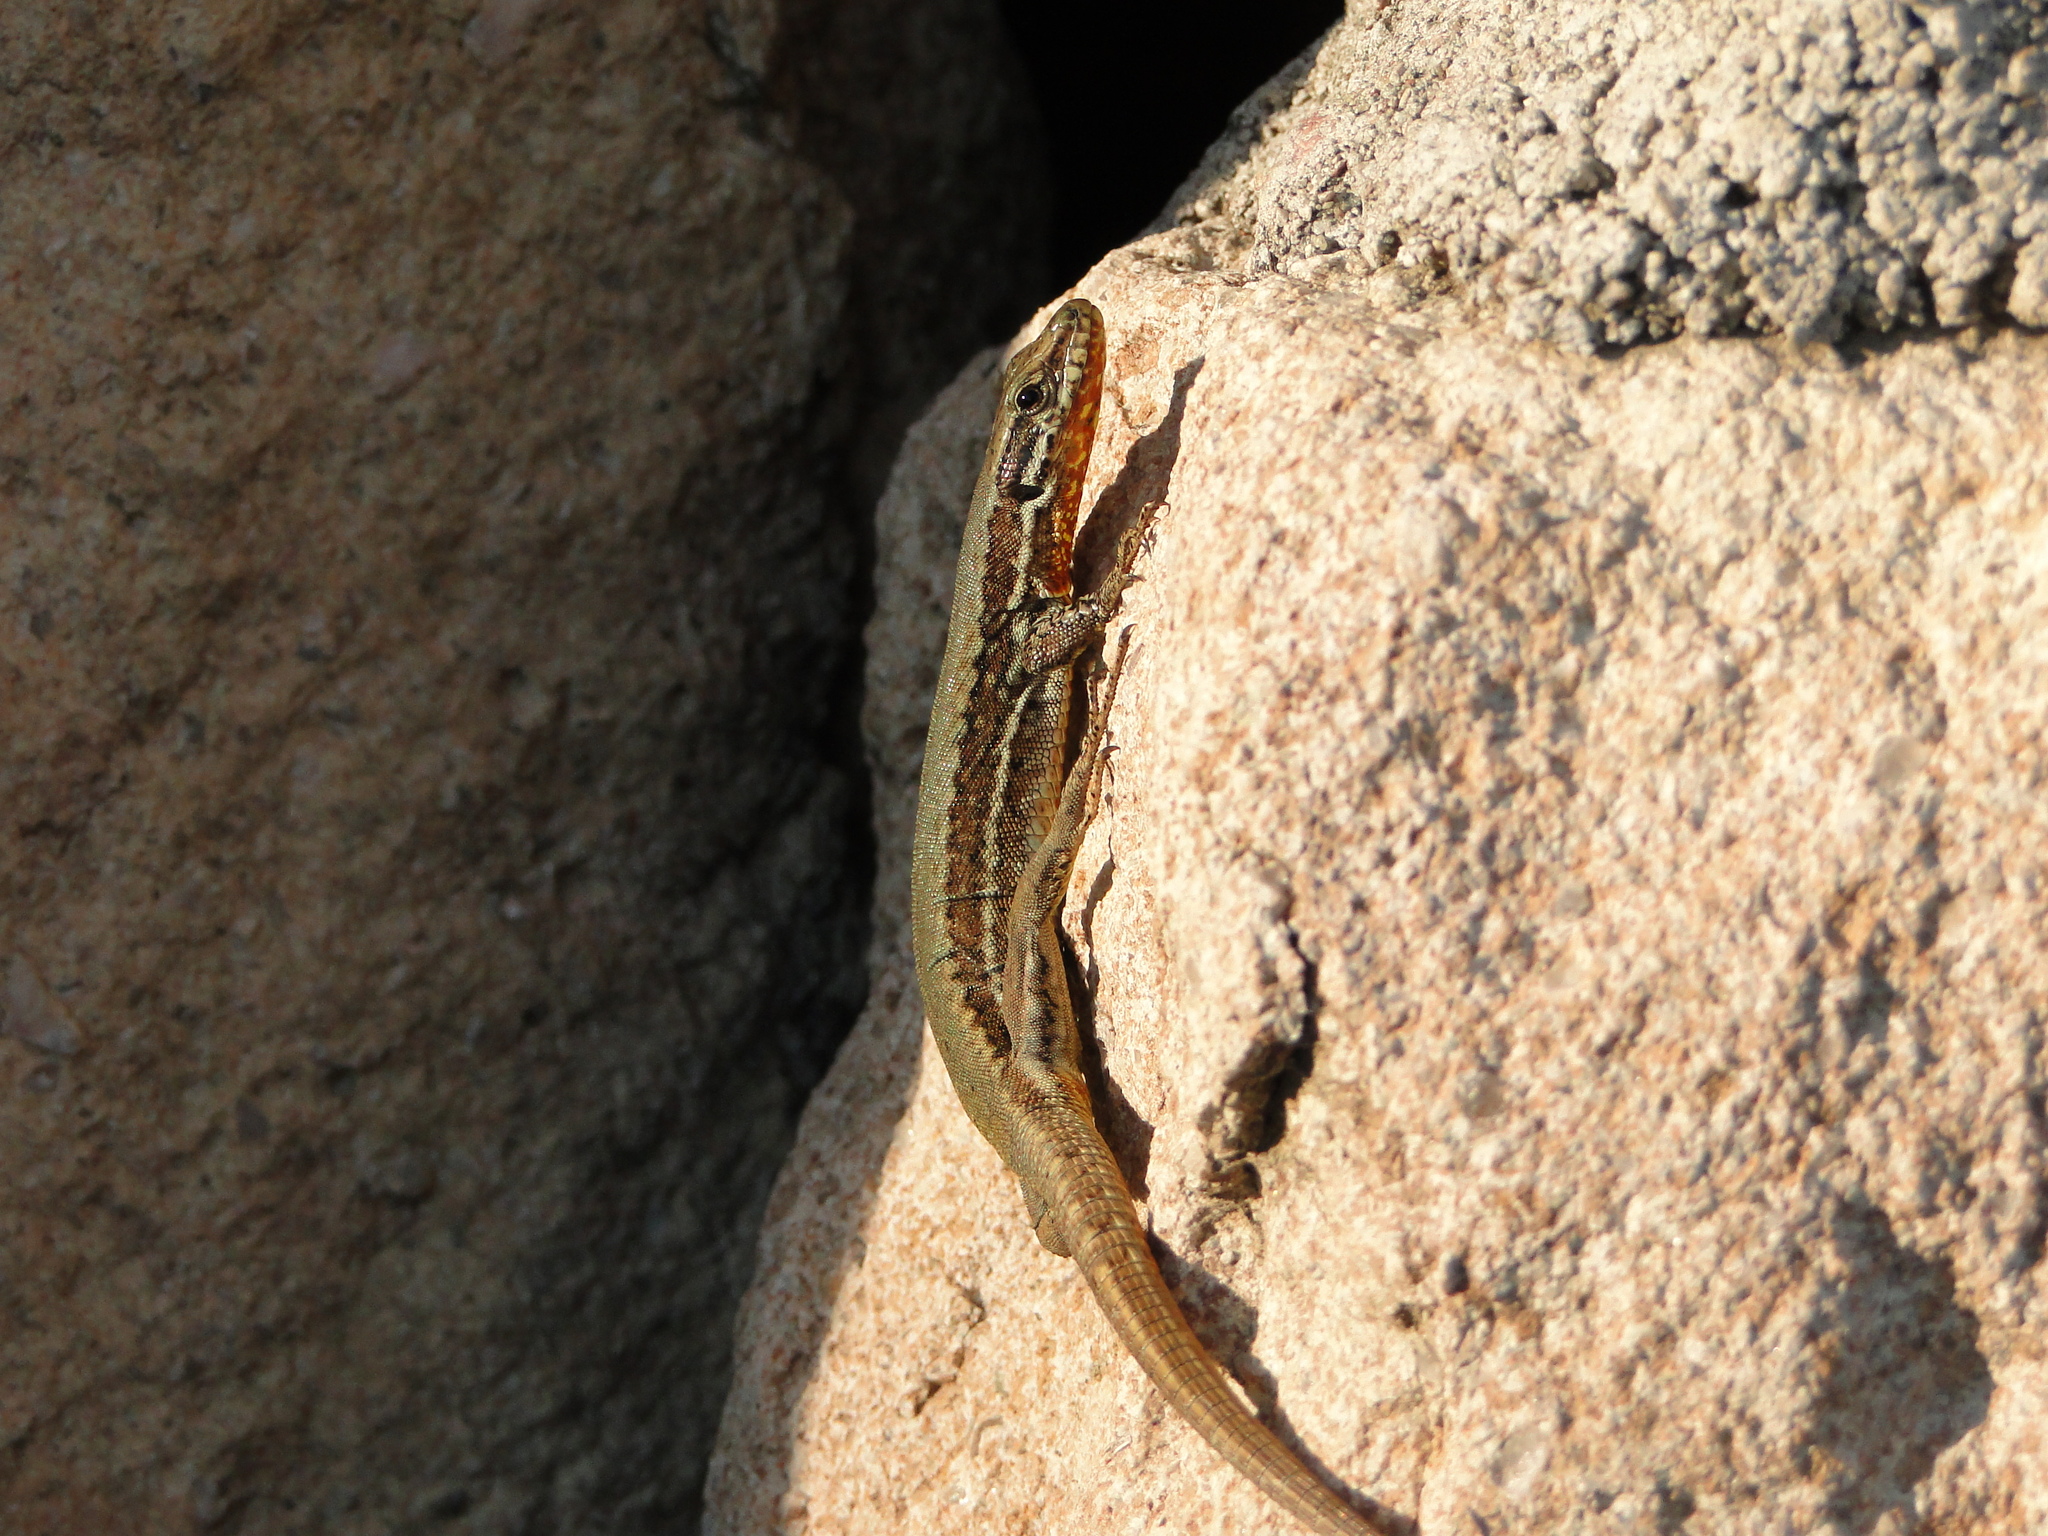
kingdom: Animalia
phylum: Chordata
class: Squamata
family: Lacertidae
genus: Podarcis
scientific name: Podarcis muralis
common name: Common wall lizard
